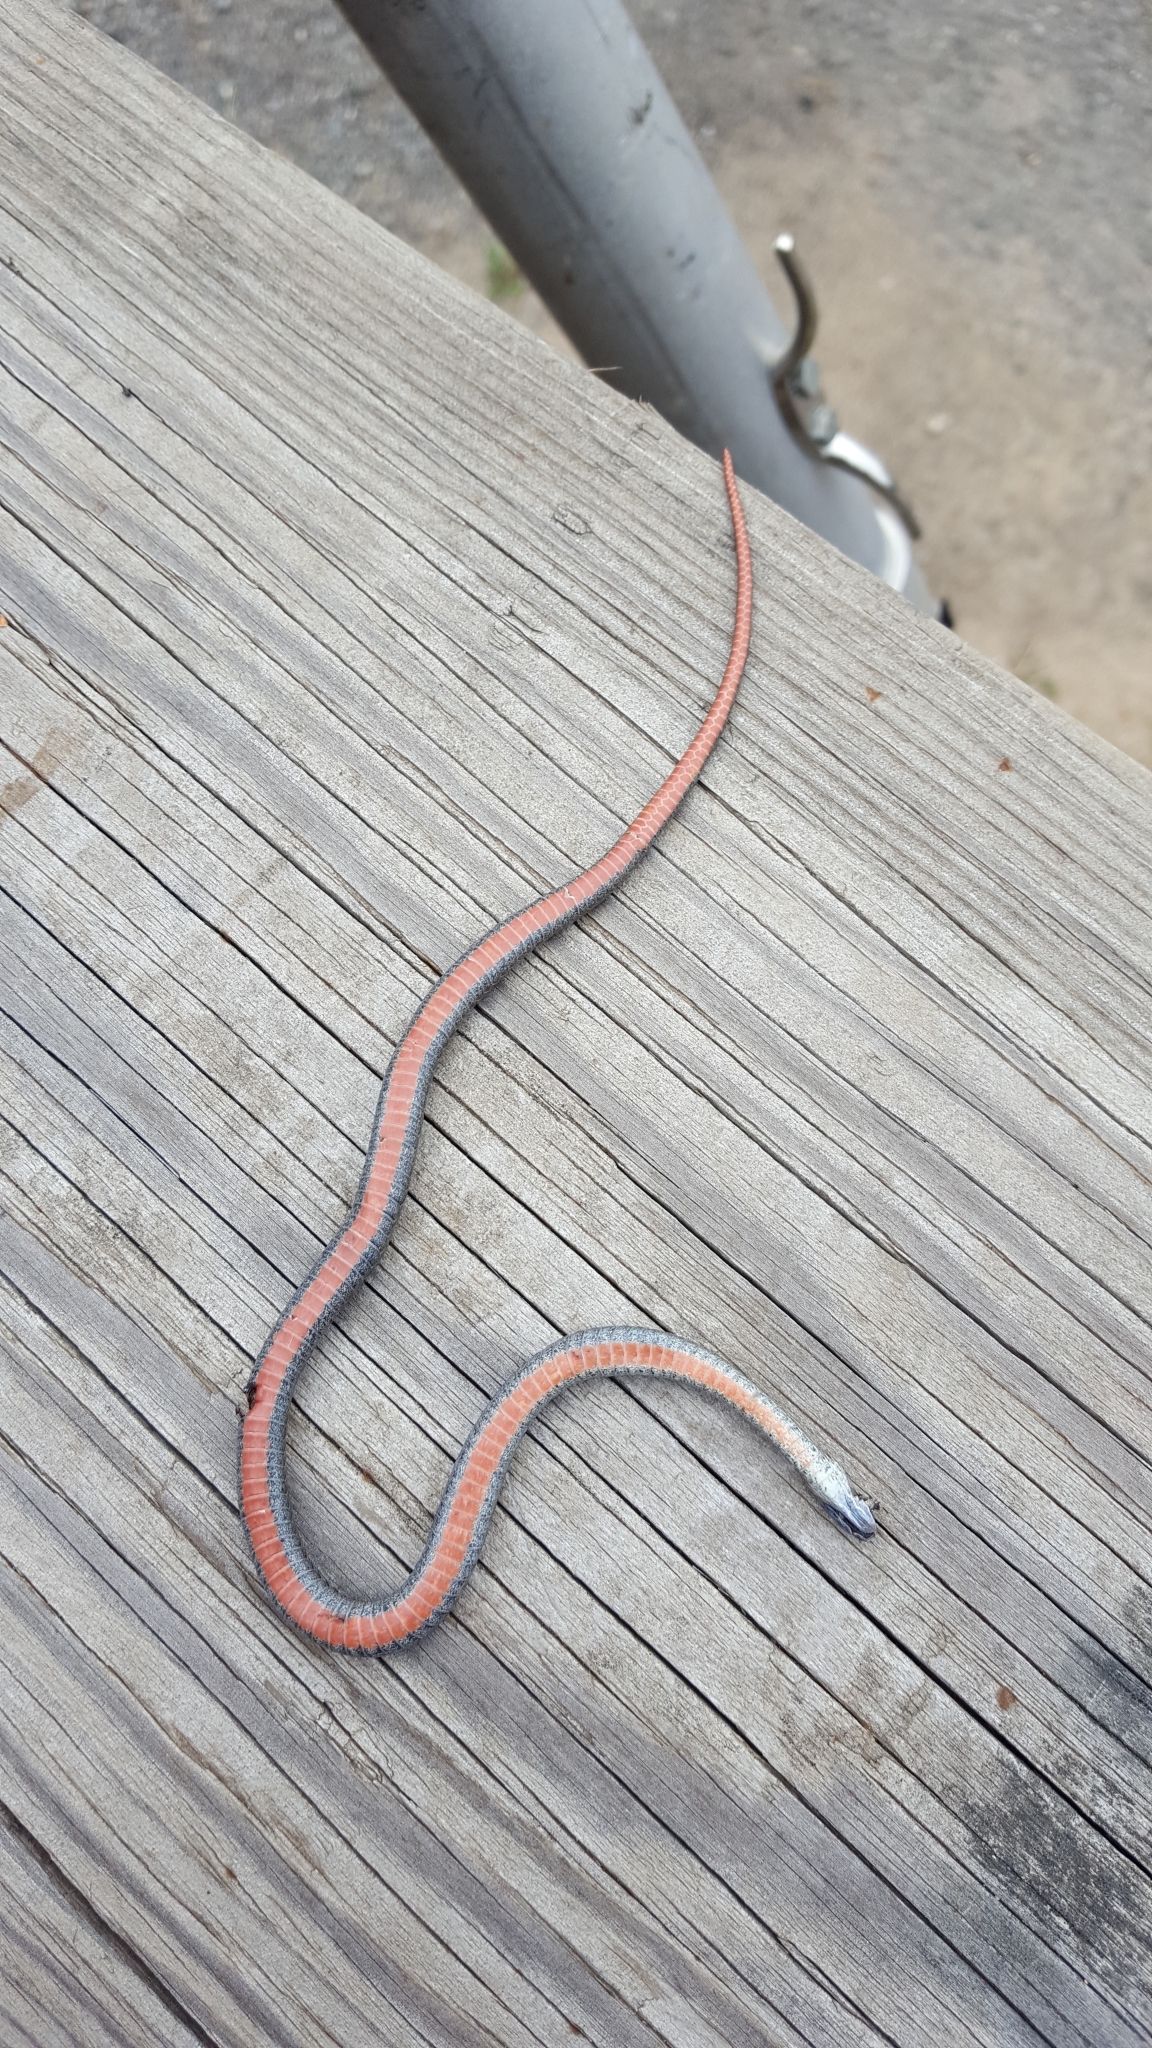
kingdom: Animalia
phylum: Chordata
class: Squamata
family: Colubridae
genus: Storeria
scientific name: Storeria occipitomaculata
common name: Redbelly snake
